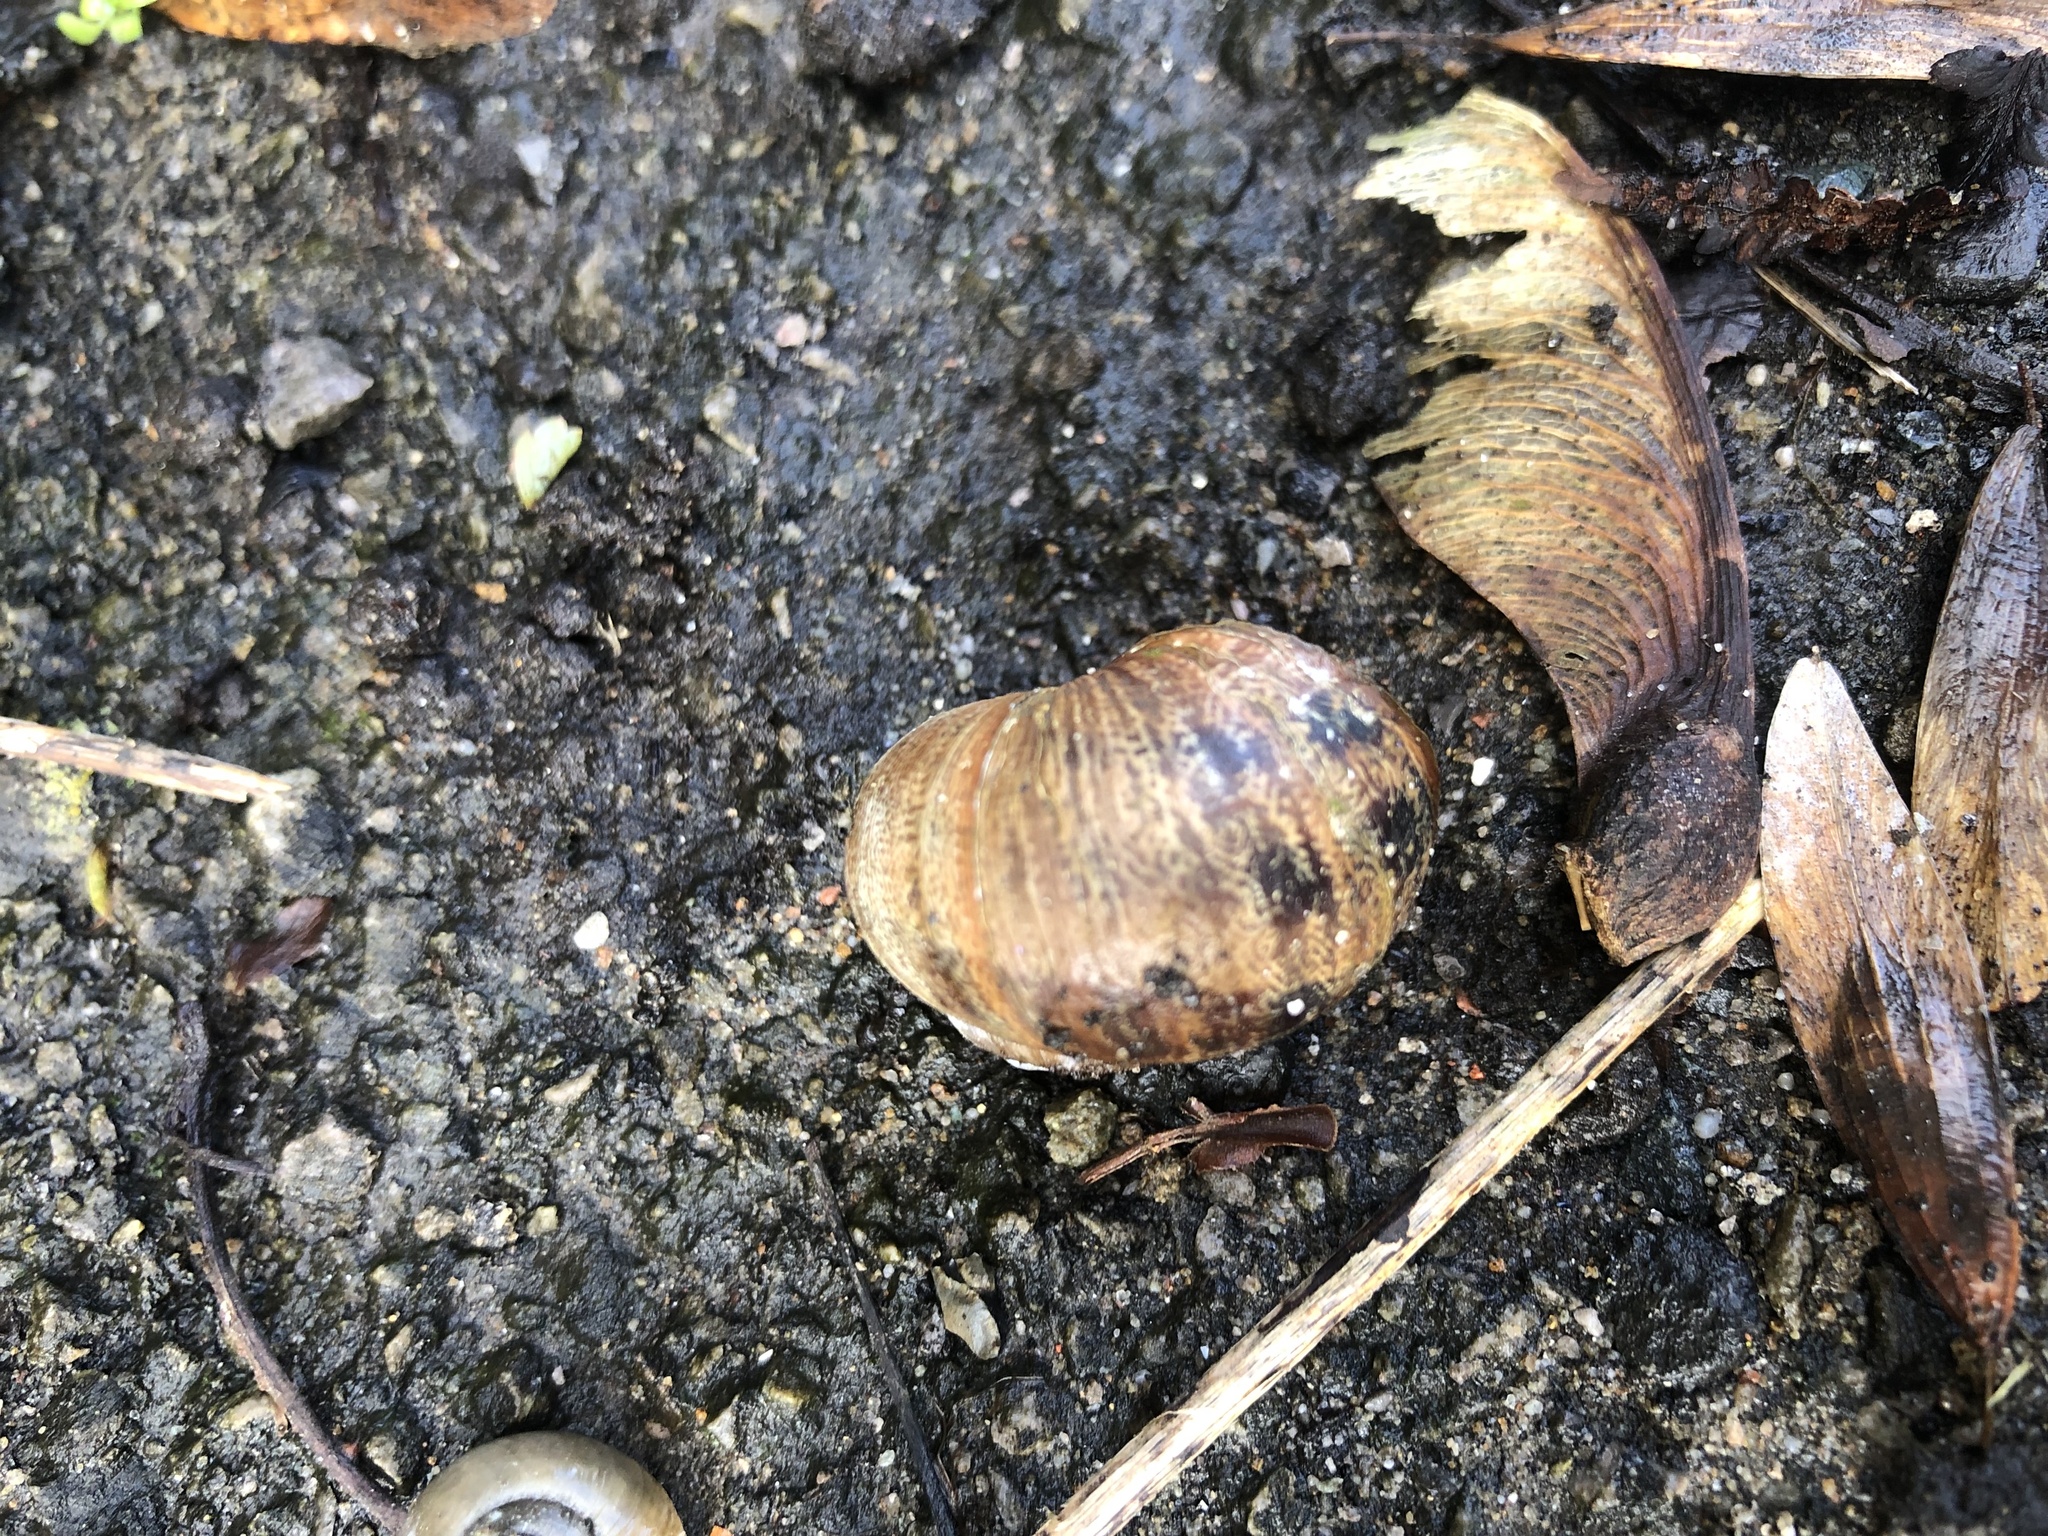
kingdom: Animalia
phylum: Mollusca
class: Gastropoda
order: Stylommatophora
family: Helicidae
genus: Cornu
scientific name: Cornu aspersum
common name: Brown garden snail
